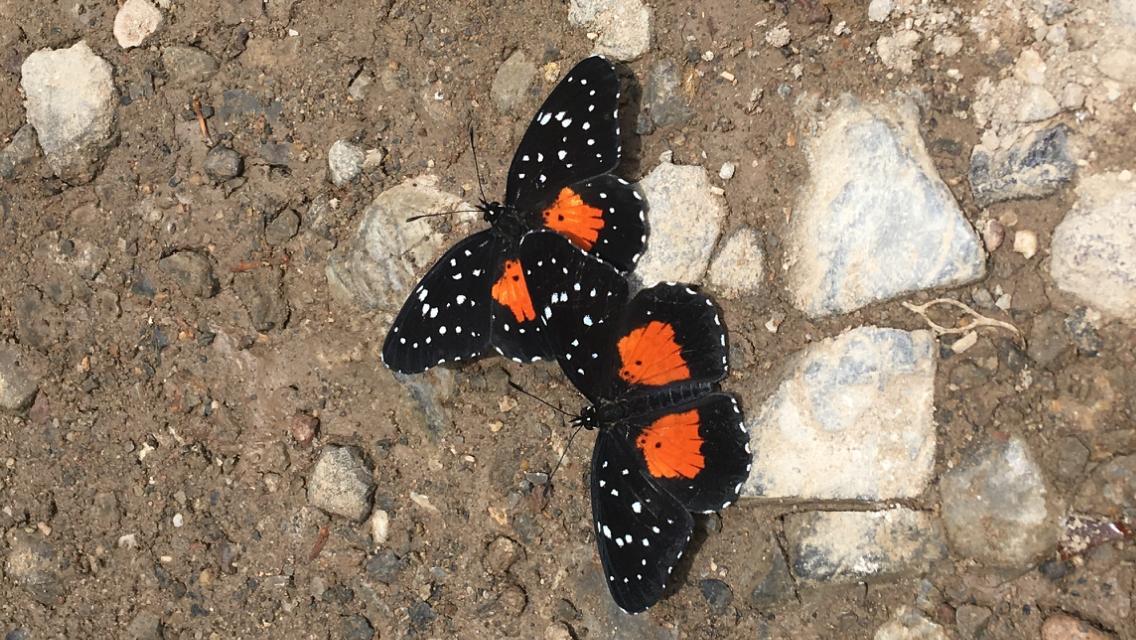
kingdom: Animalia
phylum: Arthropoda
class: Insecta
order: Lepidoptera
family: Nymphalidae
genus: Chlosyne
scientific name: Chlosyne rosita
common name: Rosita patch
